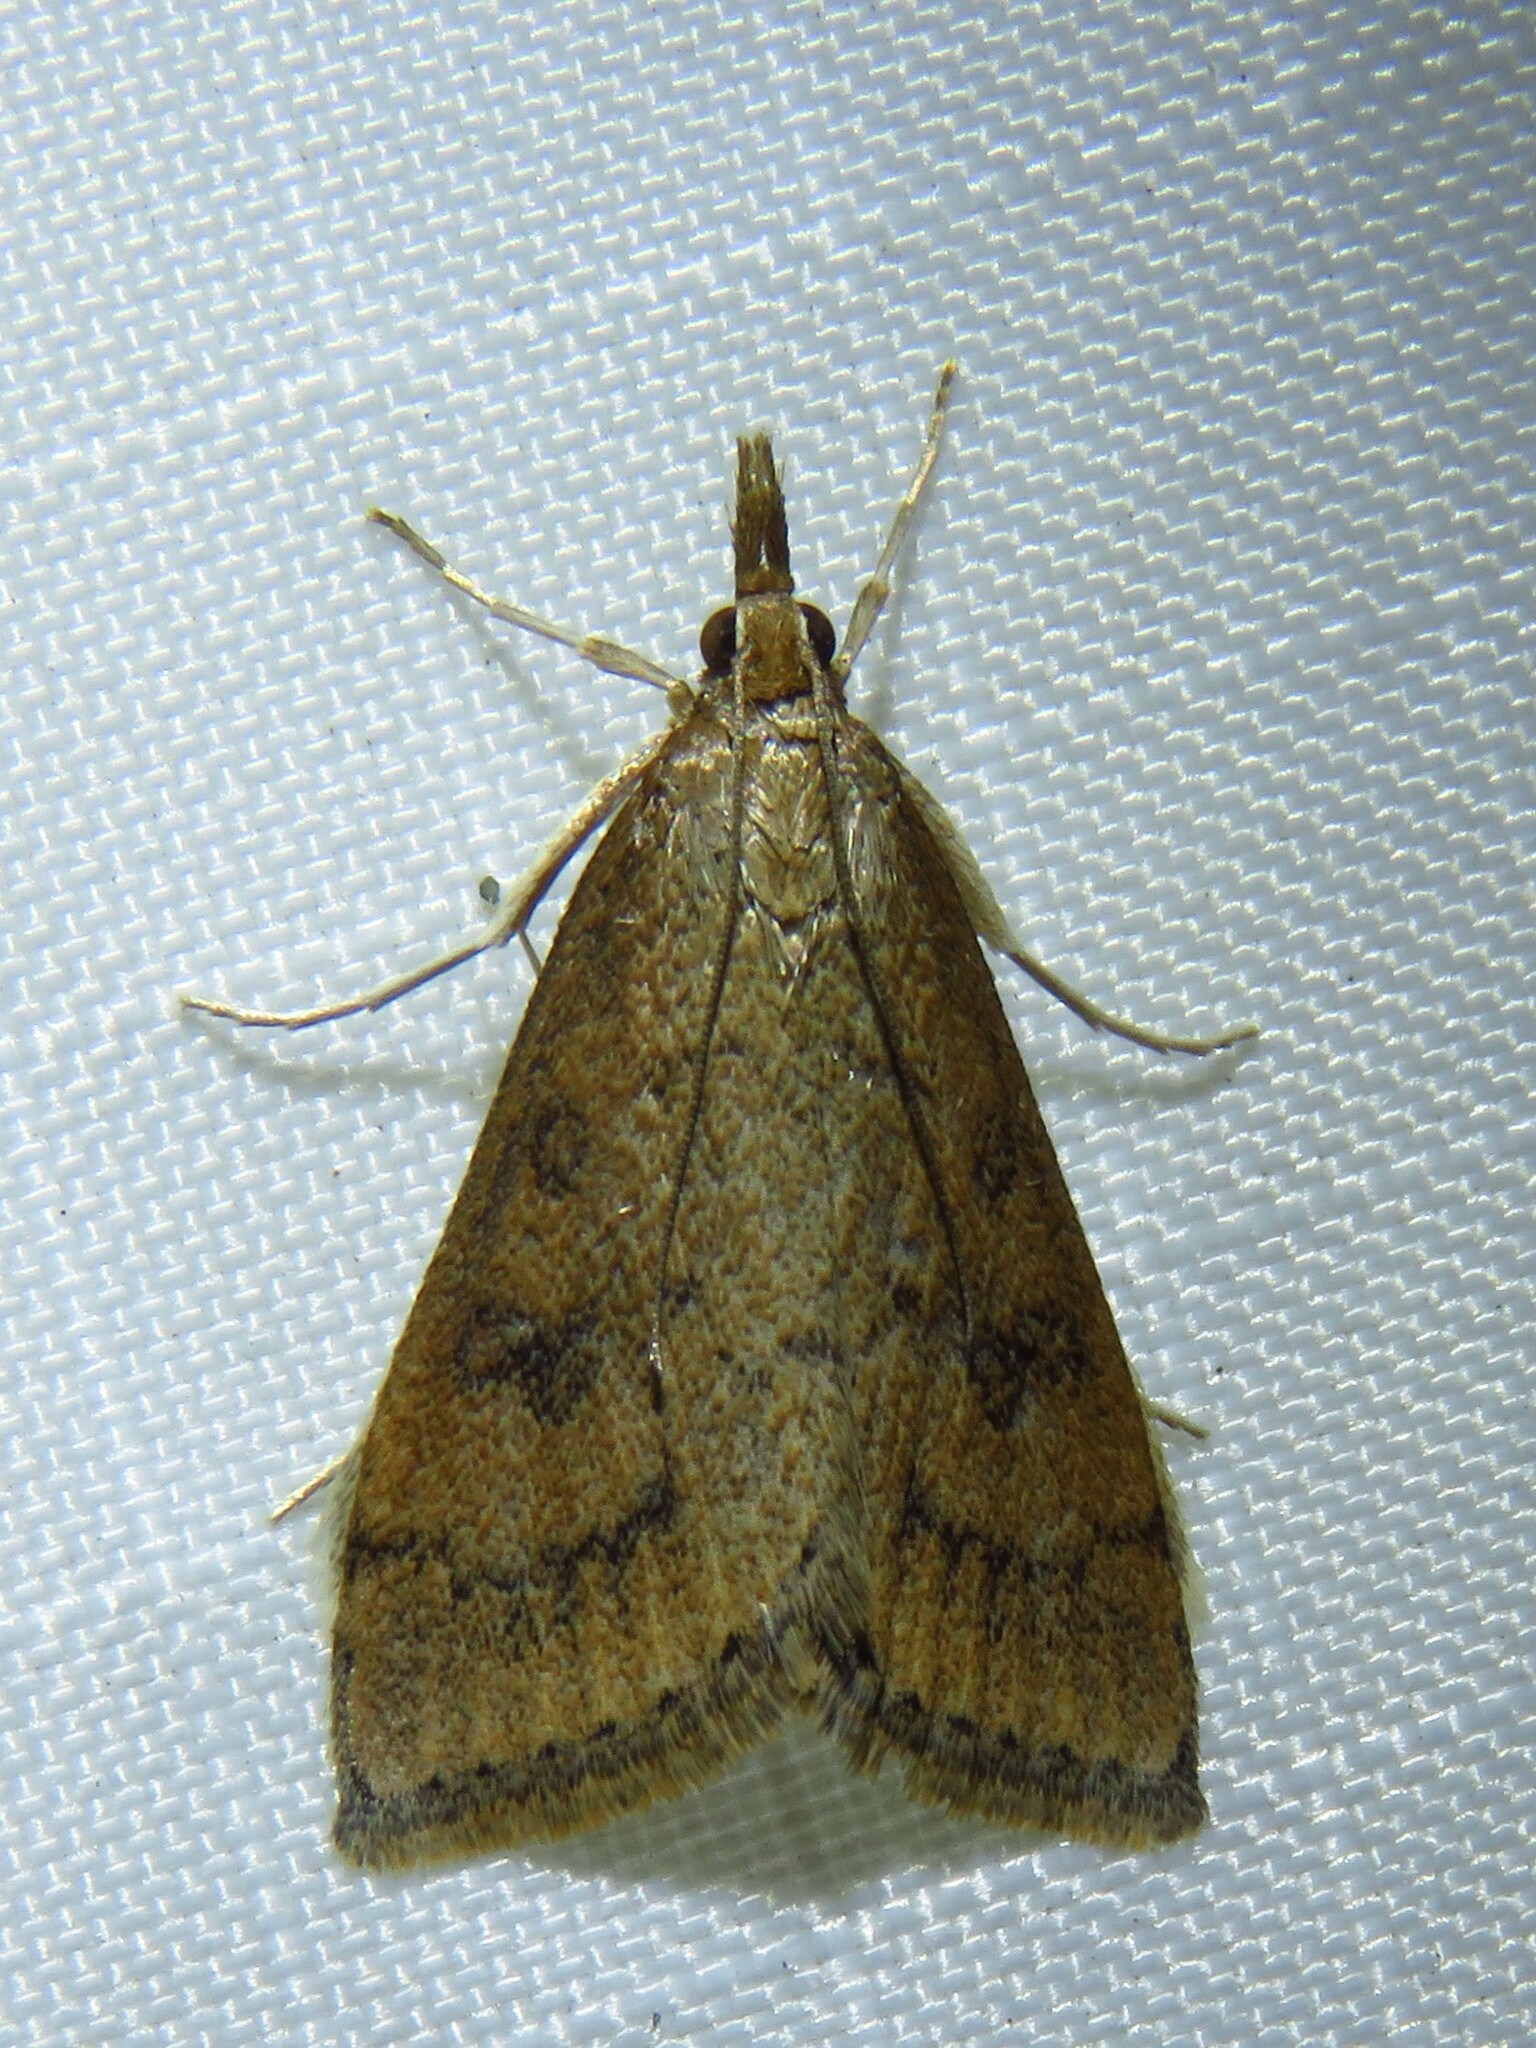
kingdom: Animalia
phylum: Arthropoda
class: Insecta
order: Lepidoptera
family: Crambidae
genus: Udea
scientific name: Udea rubigalis
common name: Celery leaftier moth
